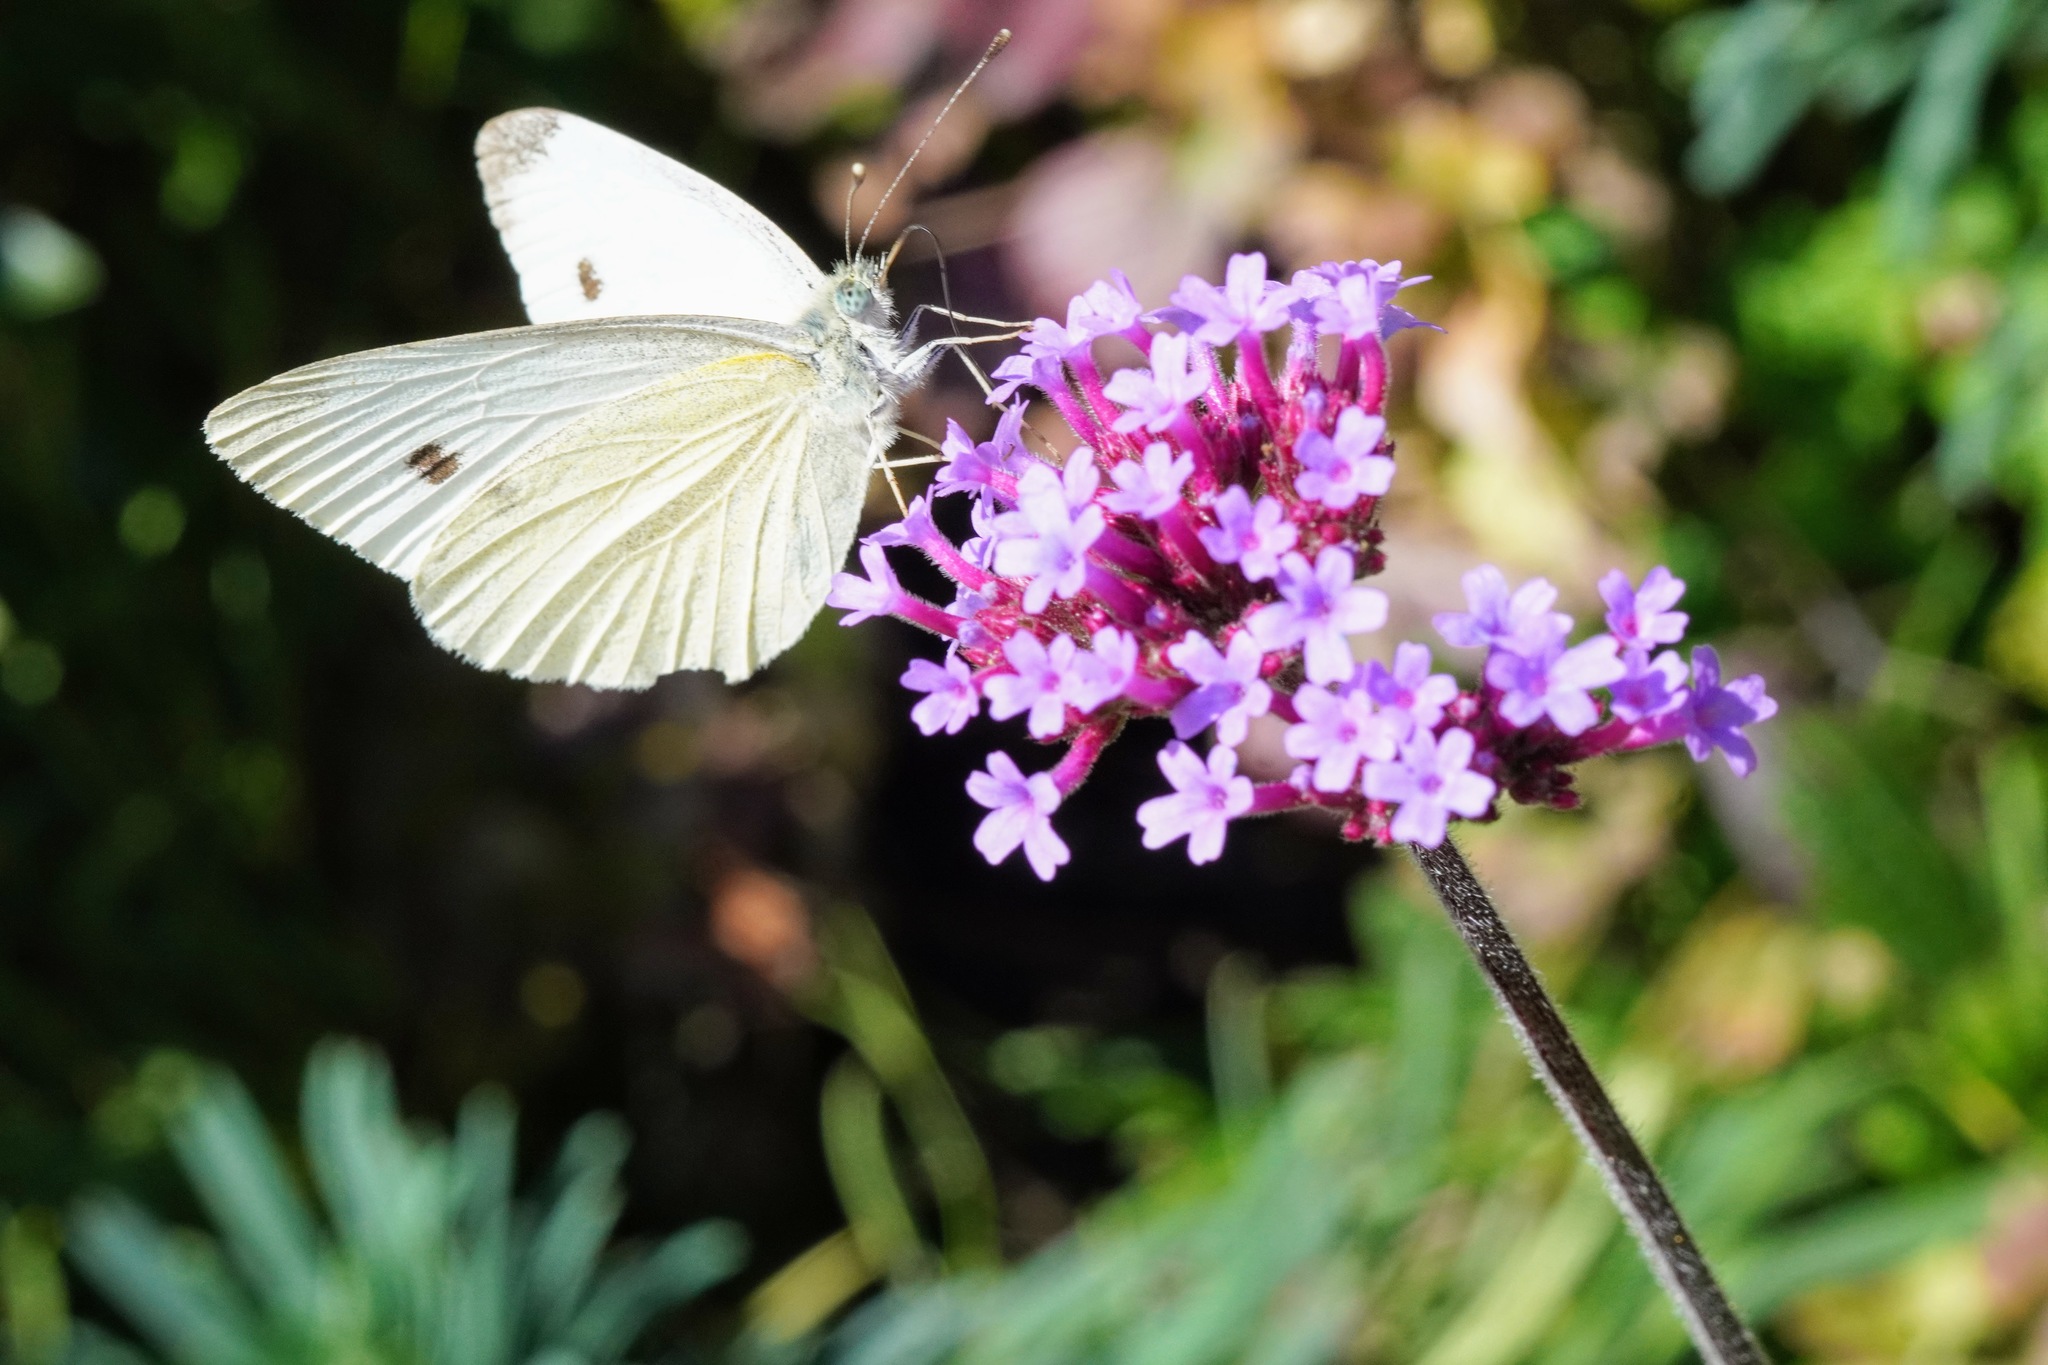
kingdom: Animalia
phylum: Arthropoda
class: Insecta
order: Lepidoptera
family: Pieridae
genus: Pieris
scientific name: Pieris rapae
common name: Small white
